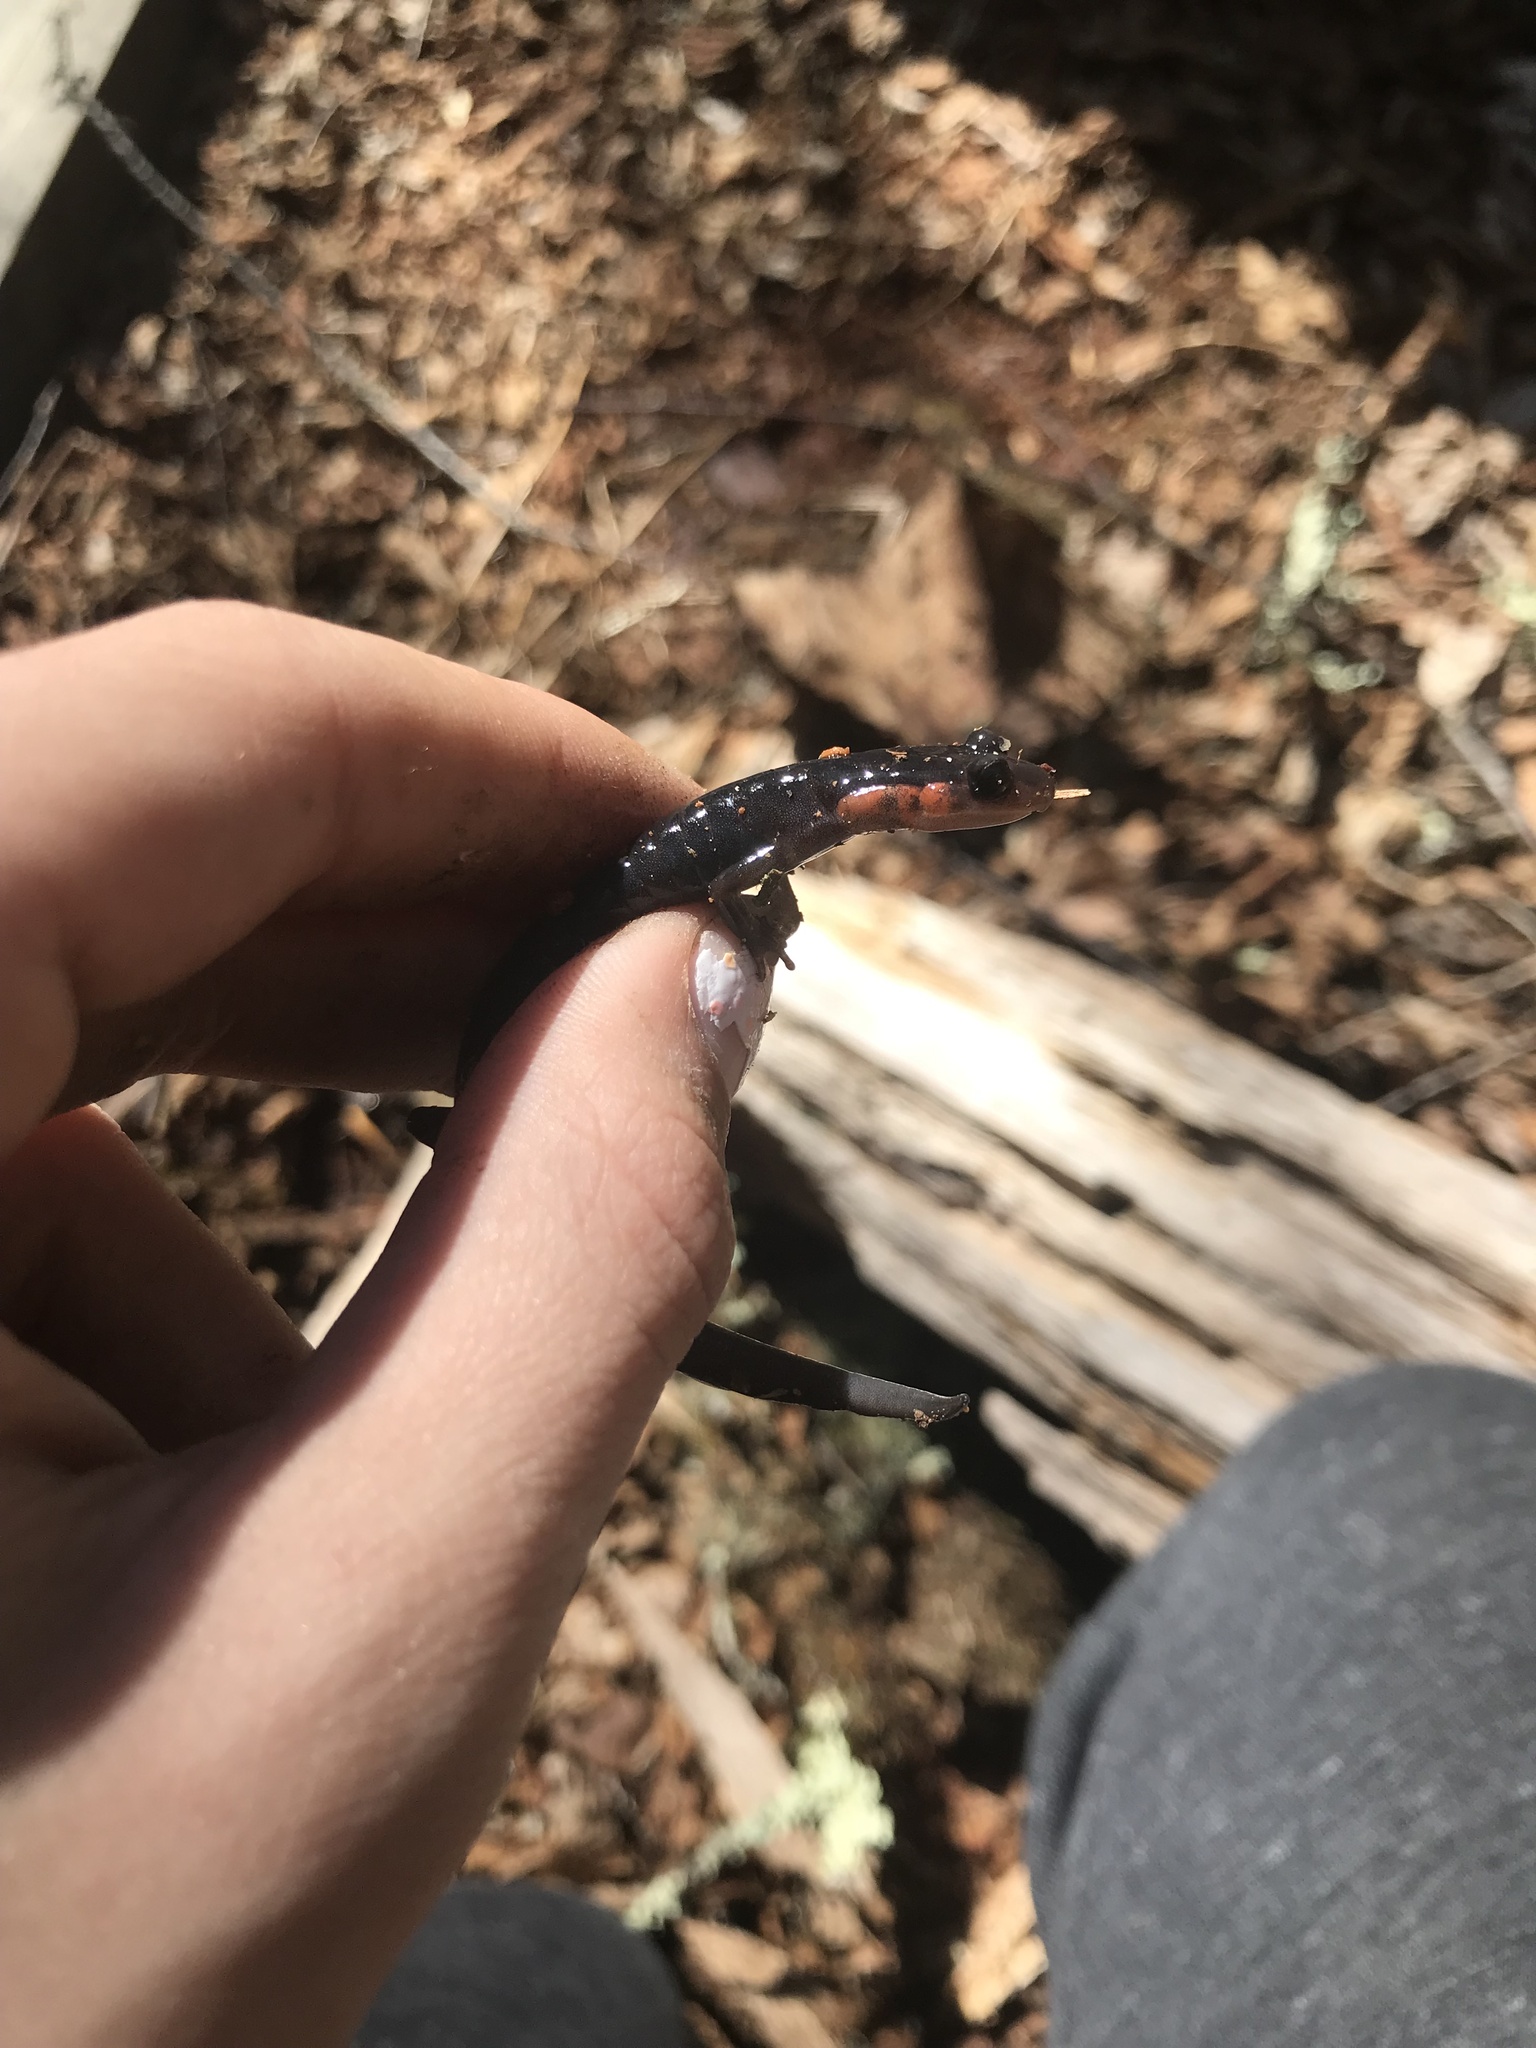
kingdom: Animalia
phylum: Chordata
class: Amphibia
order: Caudata
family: Plethodontidae
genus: Plethodon
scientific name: Plethodon jordani
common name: Red-cheeked salamander
